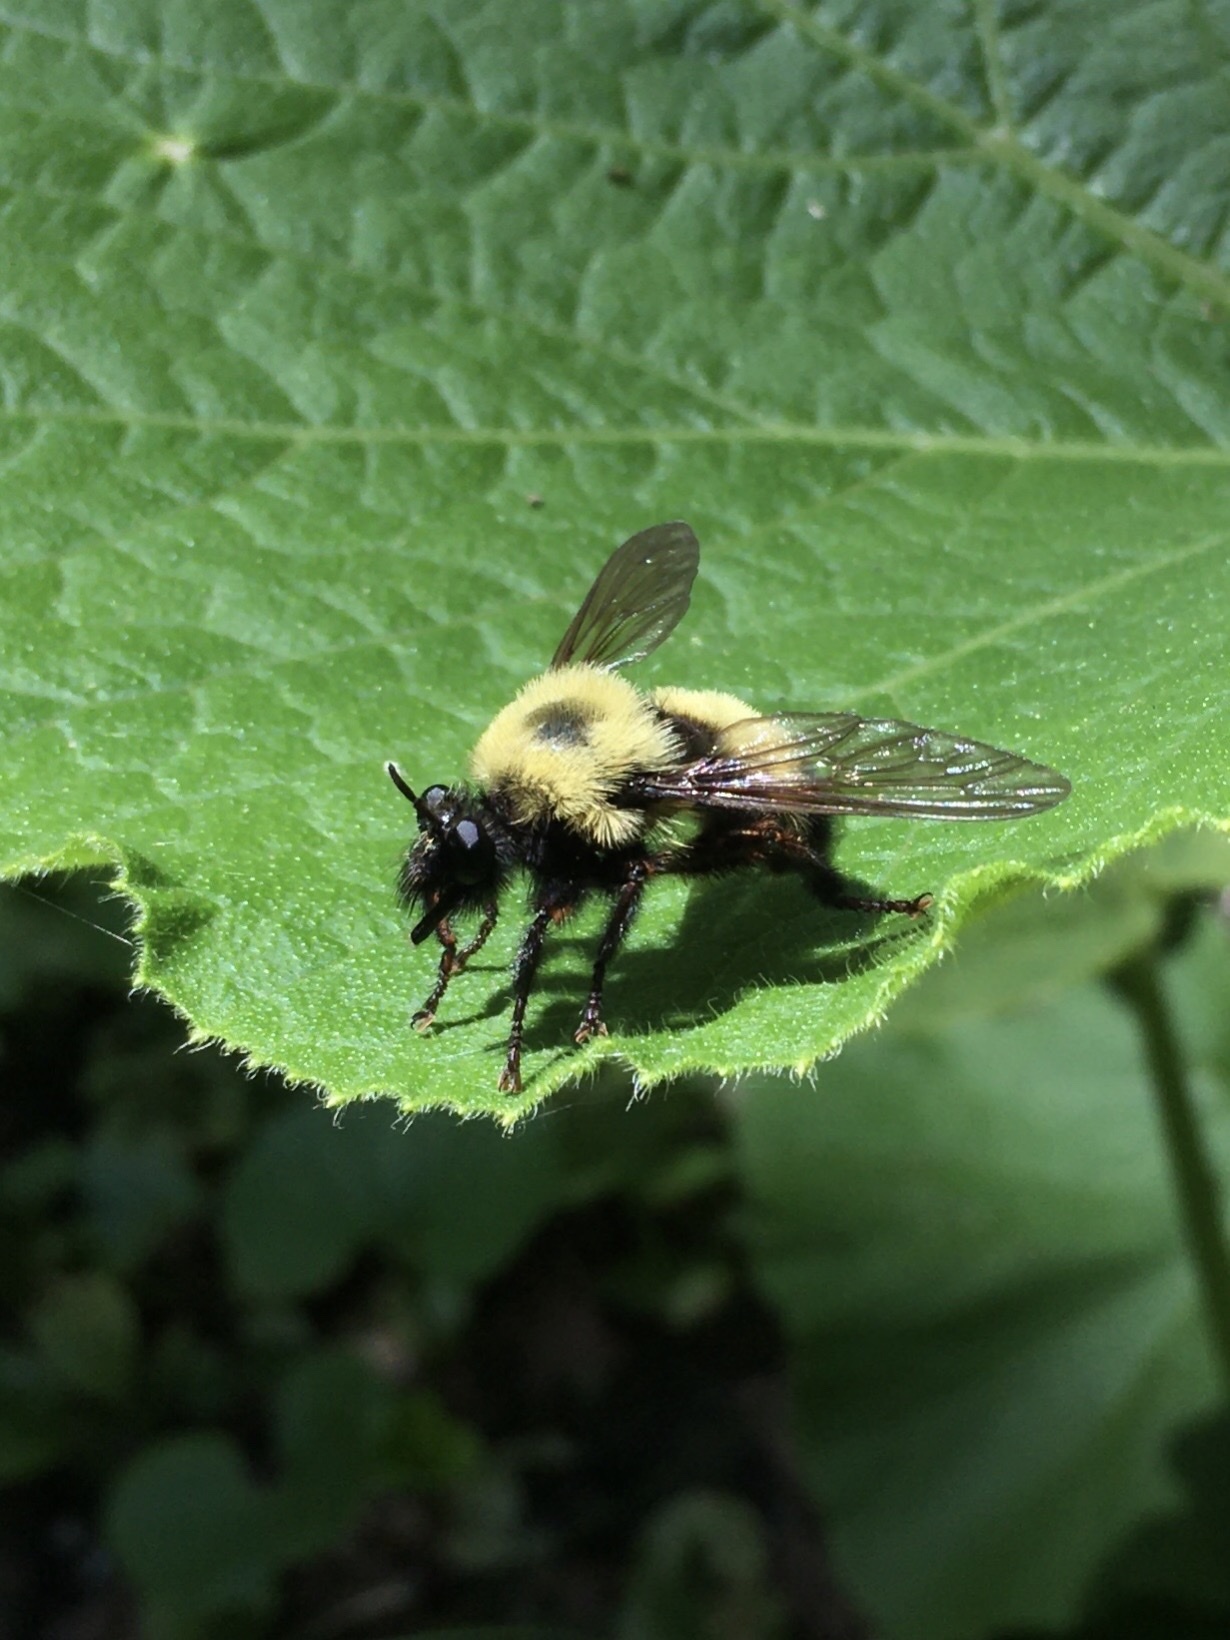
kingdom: Animalia
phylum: Arthropoda
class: Insecta
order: Diptera
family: Asilidae
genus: Laphria
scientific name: Laphria thoracica
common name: Bumble bee mimic robber fly
